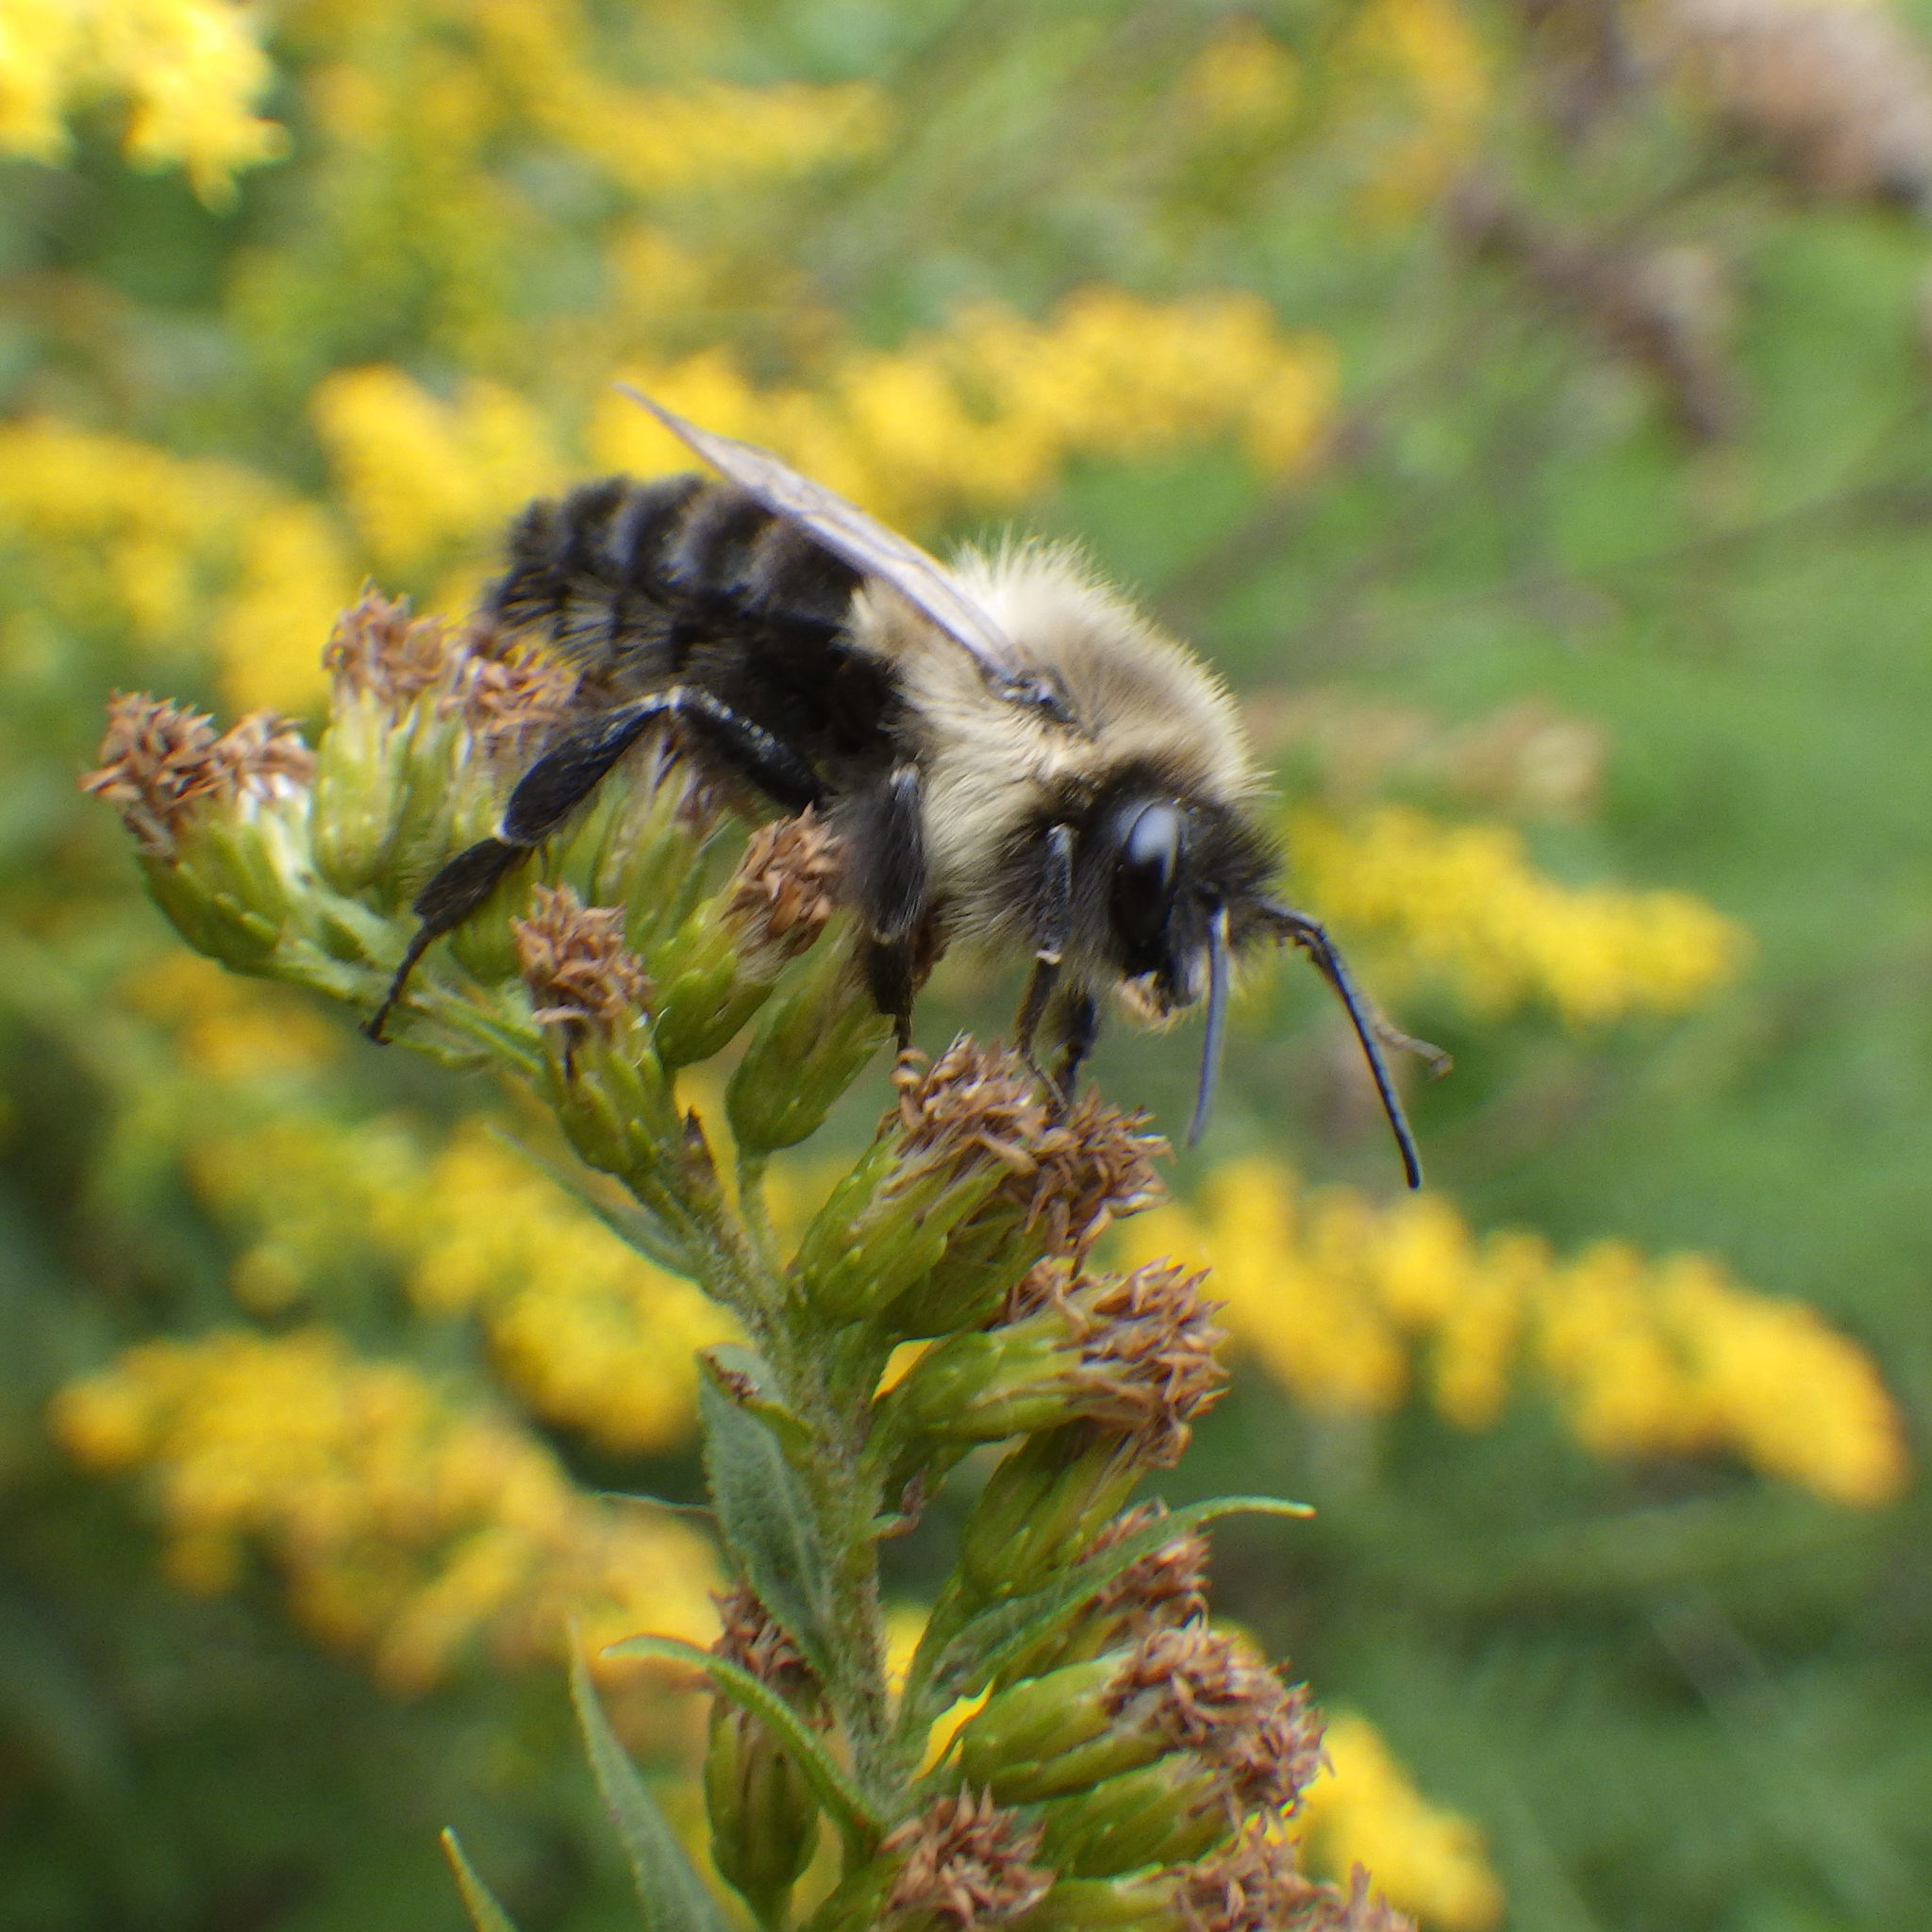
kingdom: Animalia
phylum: Arthropoda
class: Insecta
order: Hymenoptera
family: Apidae
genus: Bombus
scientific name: Bombus impatiens
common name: Common eastern bumble bee
